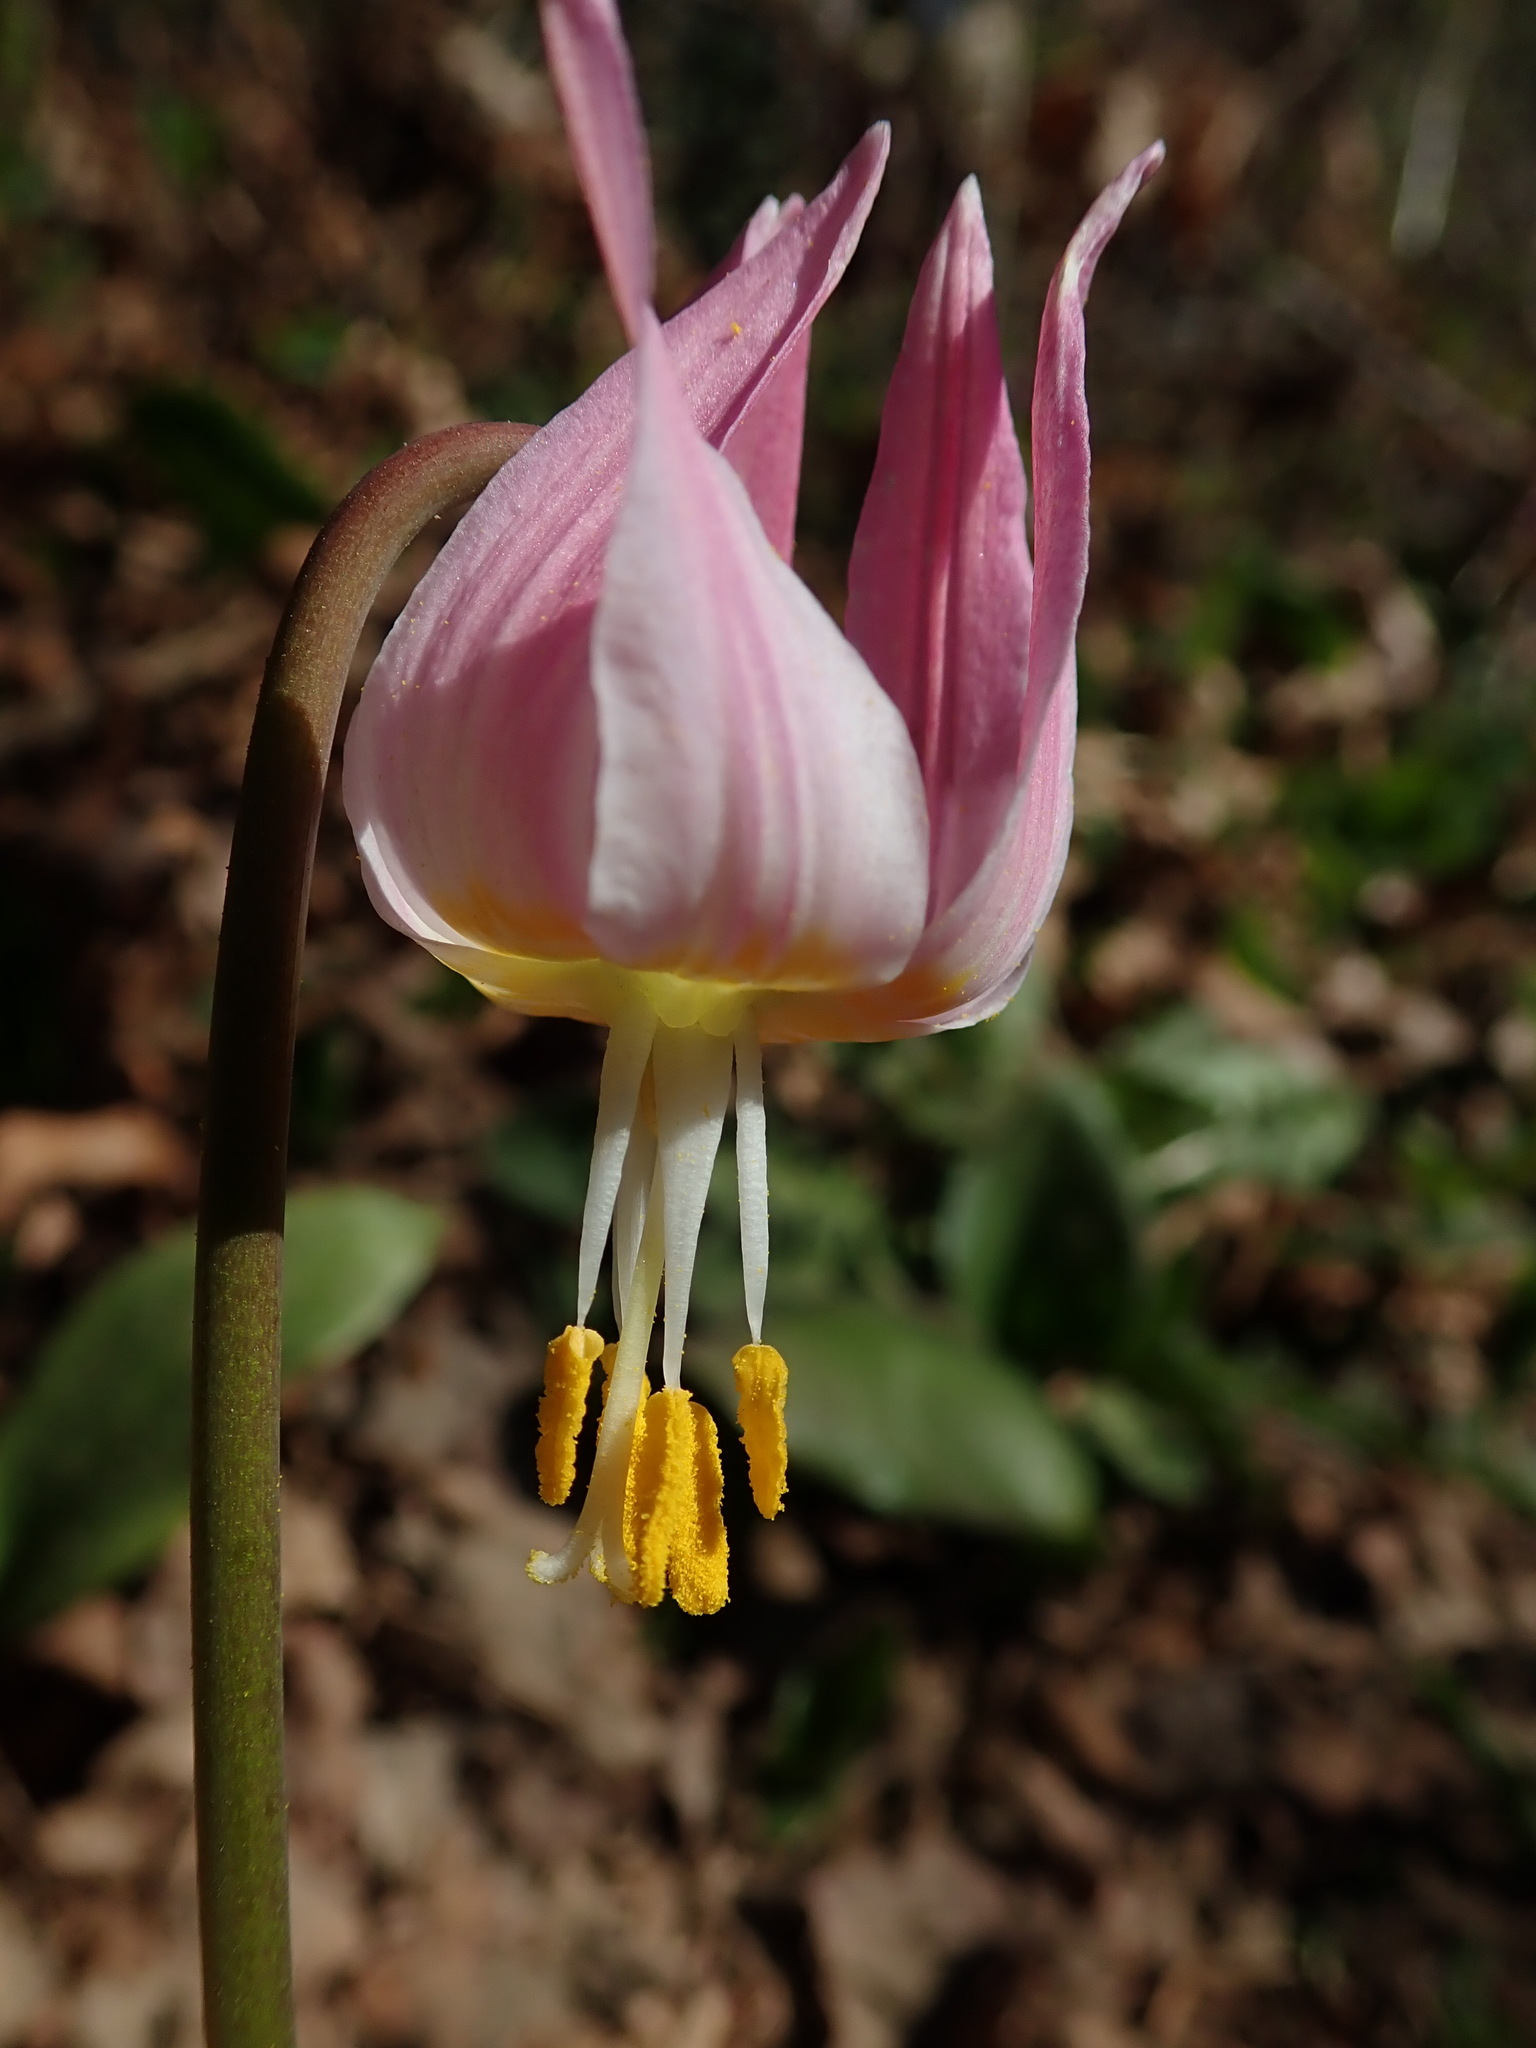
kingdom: Plantae
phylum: Tracheophyta
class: Liliopsida
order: Liliales
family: Liliaceae
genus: Erythronium
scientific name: Erythronium revolutum
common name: Pink fawn-lily
